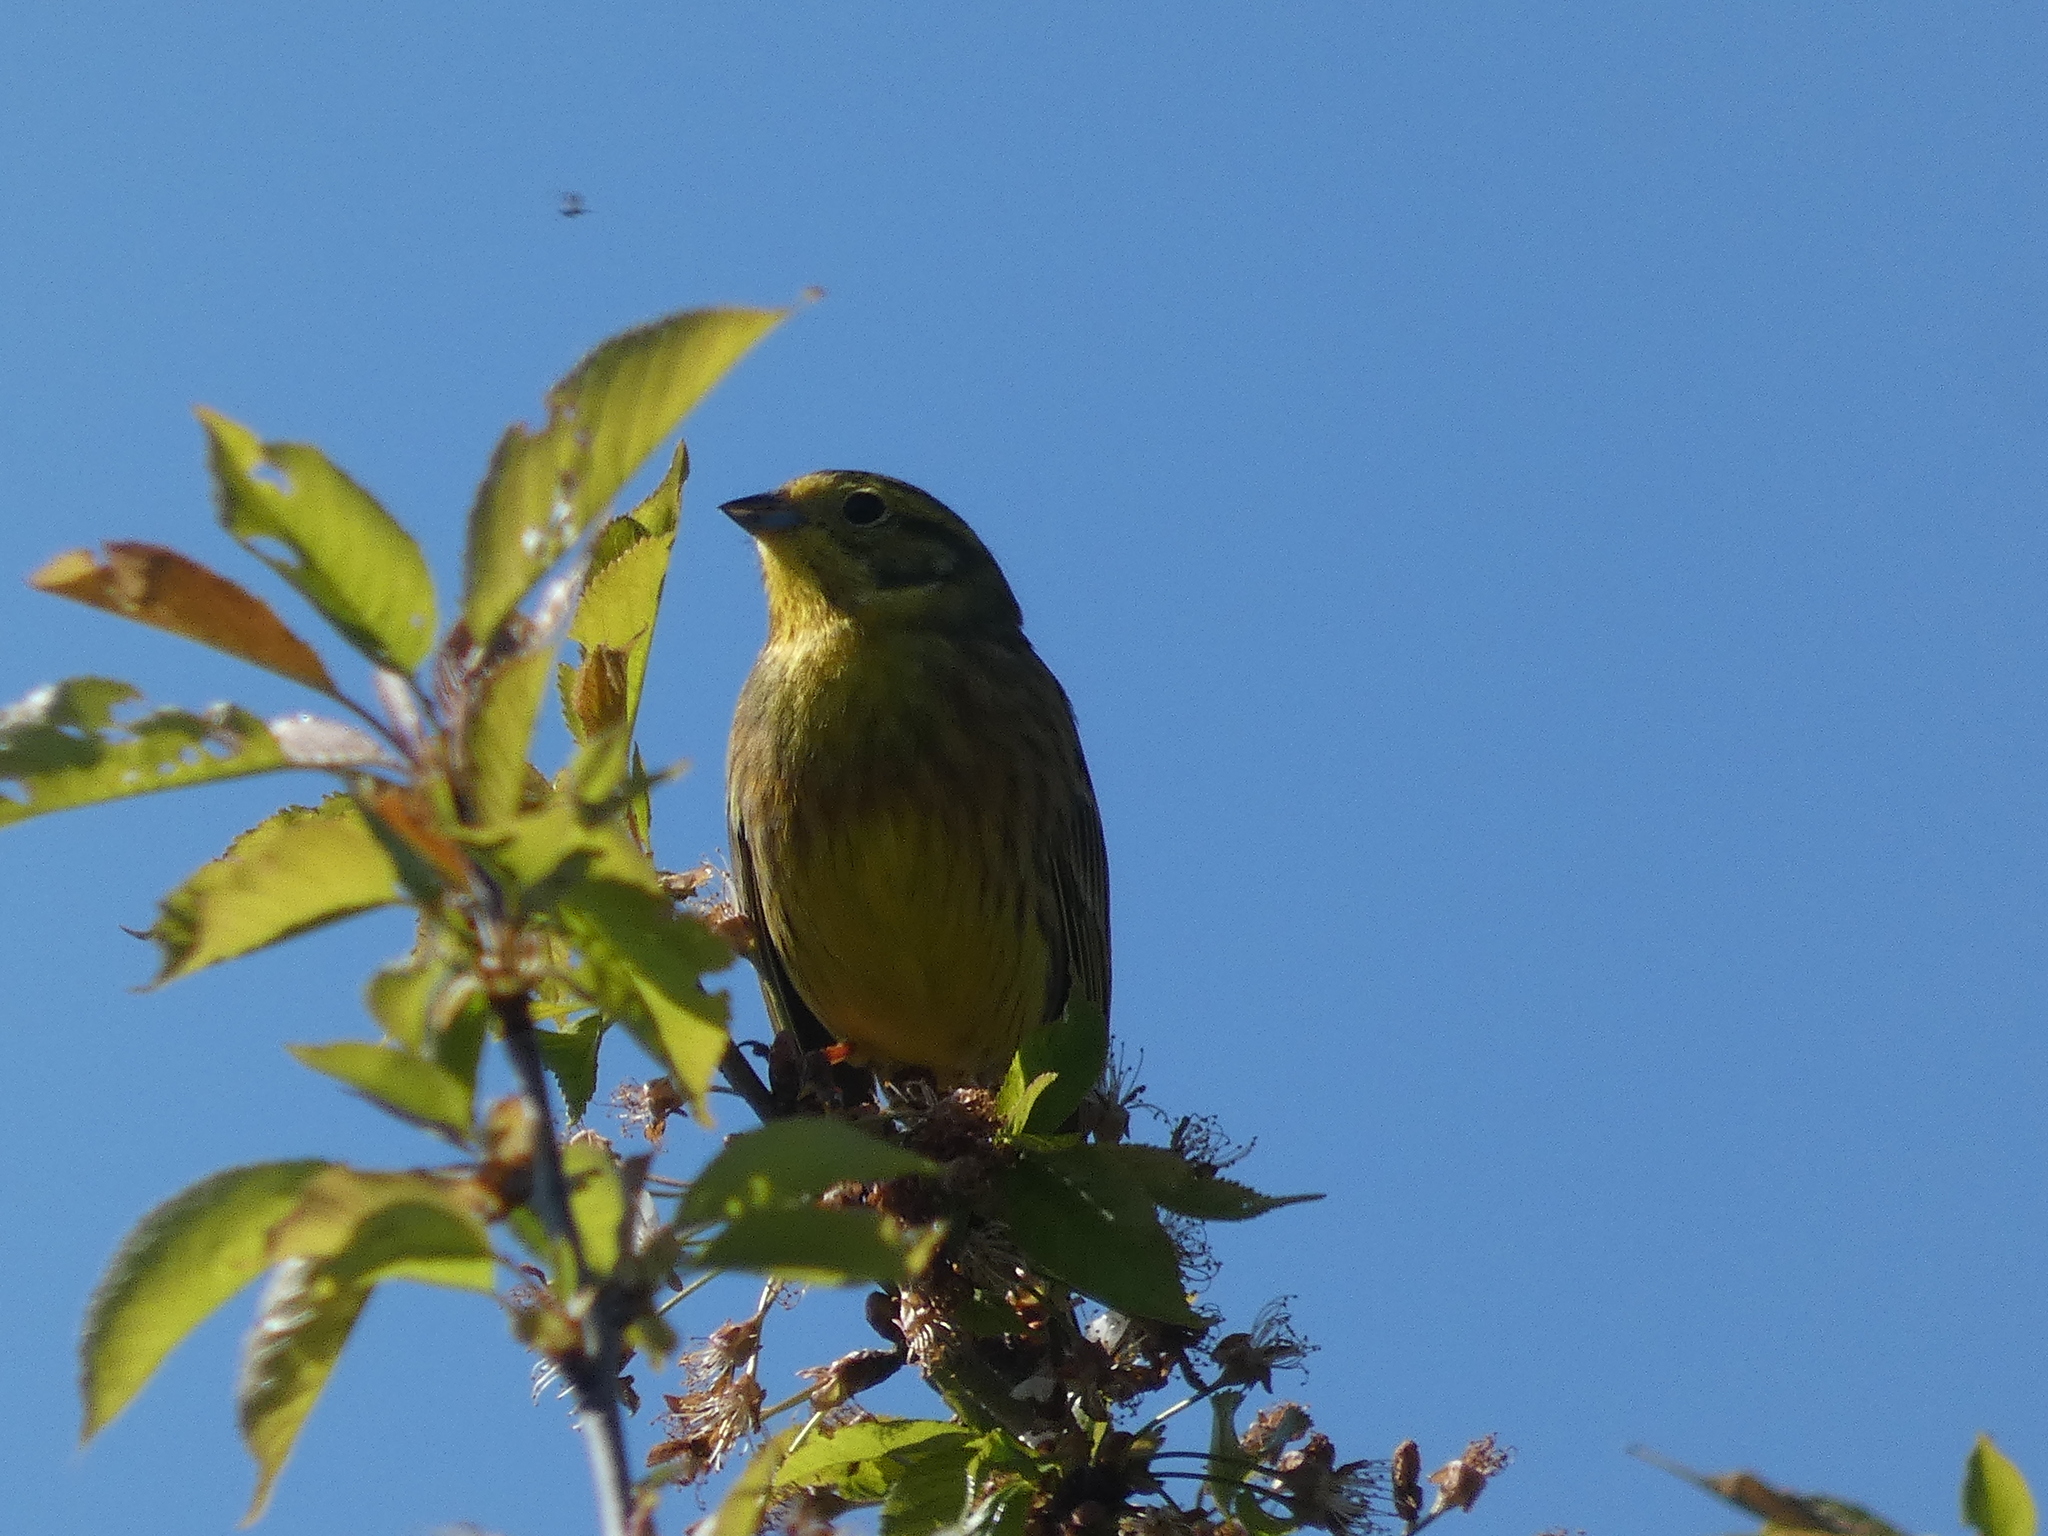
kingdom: Animalia
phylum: Chordata
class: Aves
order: Passeriformes
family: Emberizidae
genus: Emberiza
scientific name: Emberiza citrinella
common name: Yellowhammer
